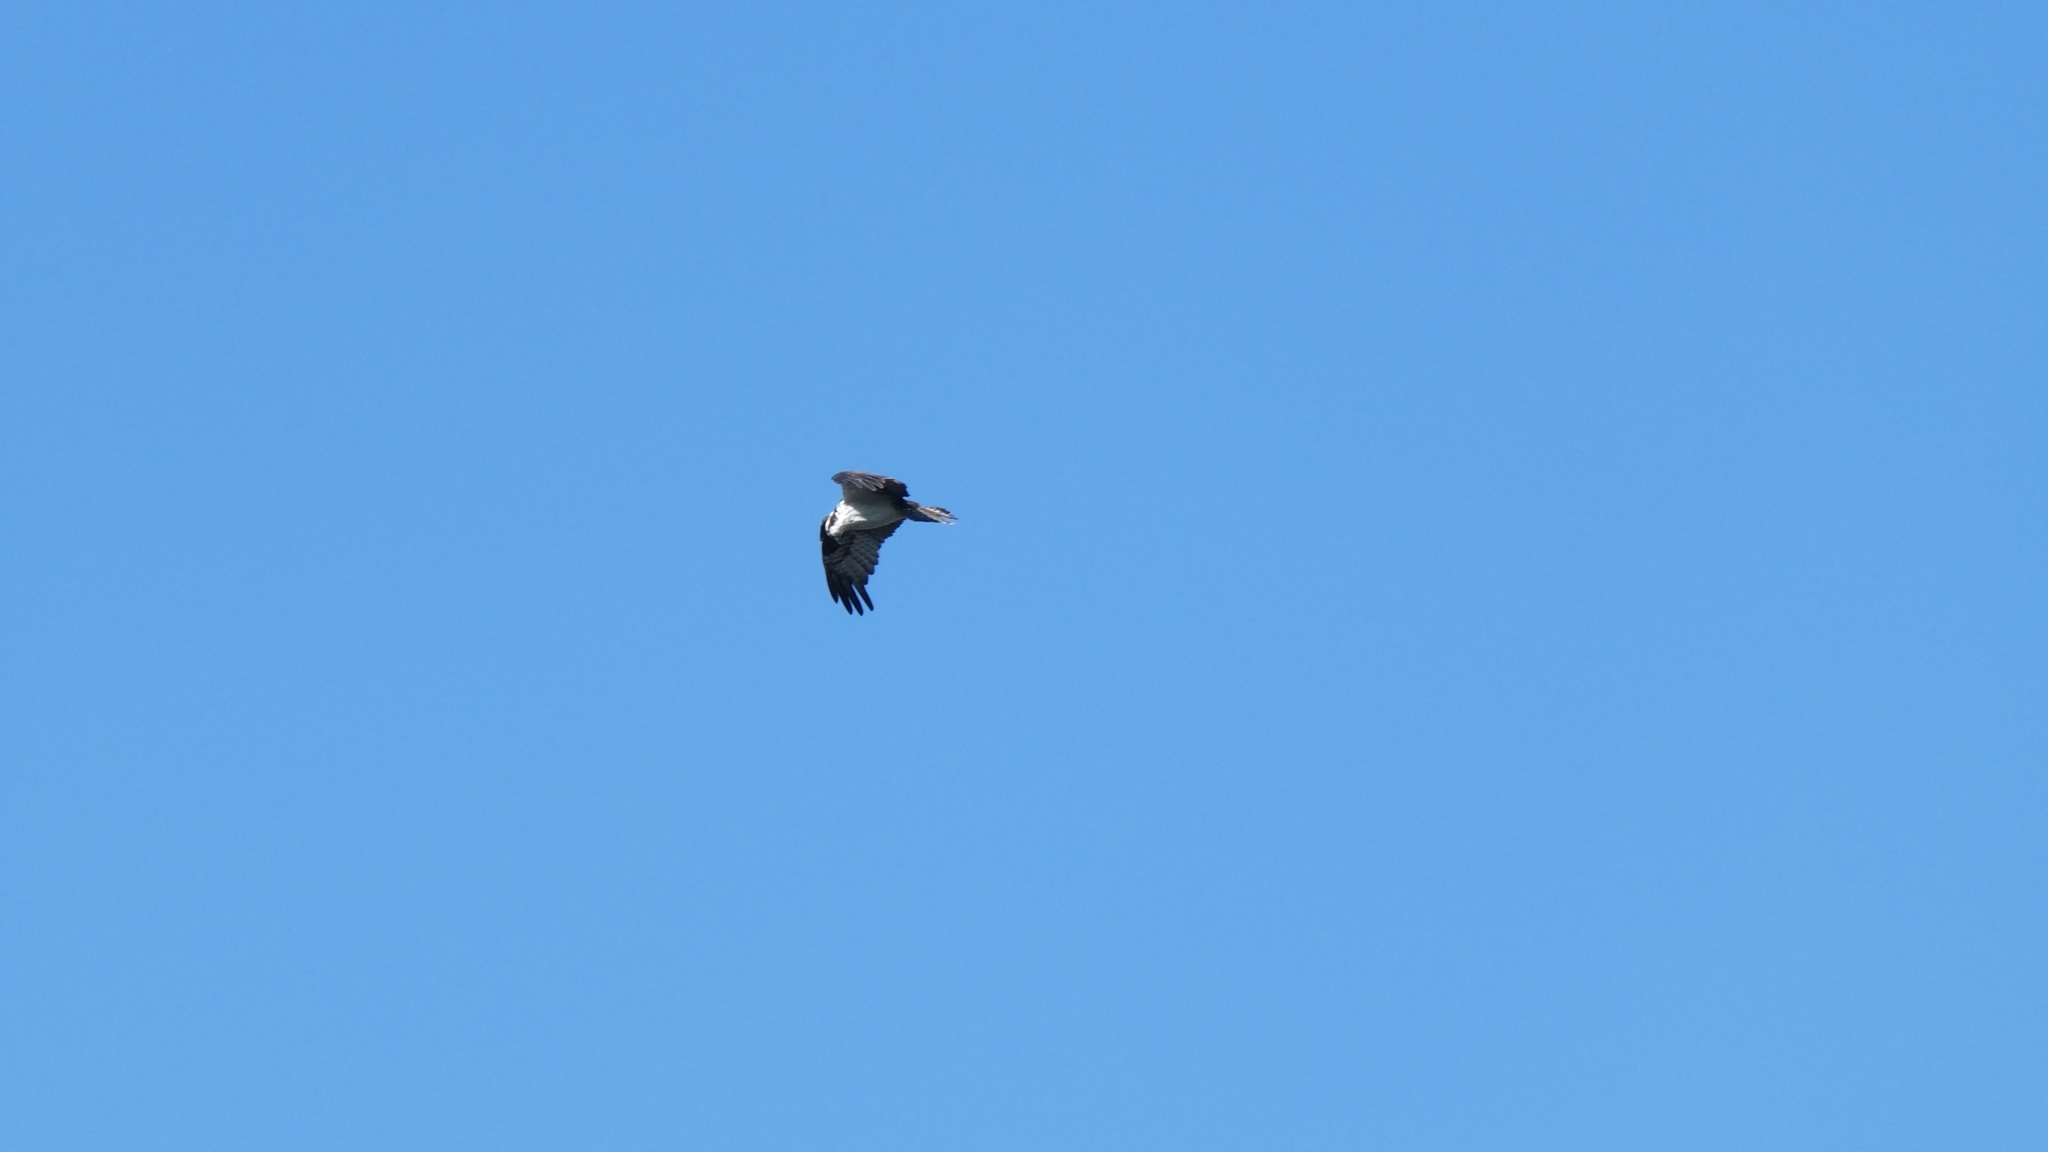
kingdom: Animalia
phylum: Chordata
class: Aves
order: Accipitriformes
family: Pandionidae
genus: Pandion
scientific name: Pandion haliaetus
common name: Osprey
